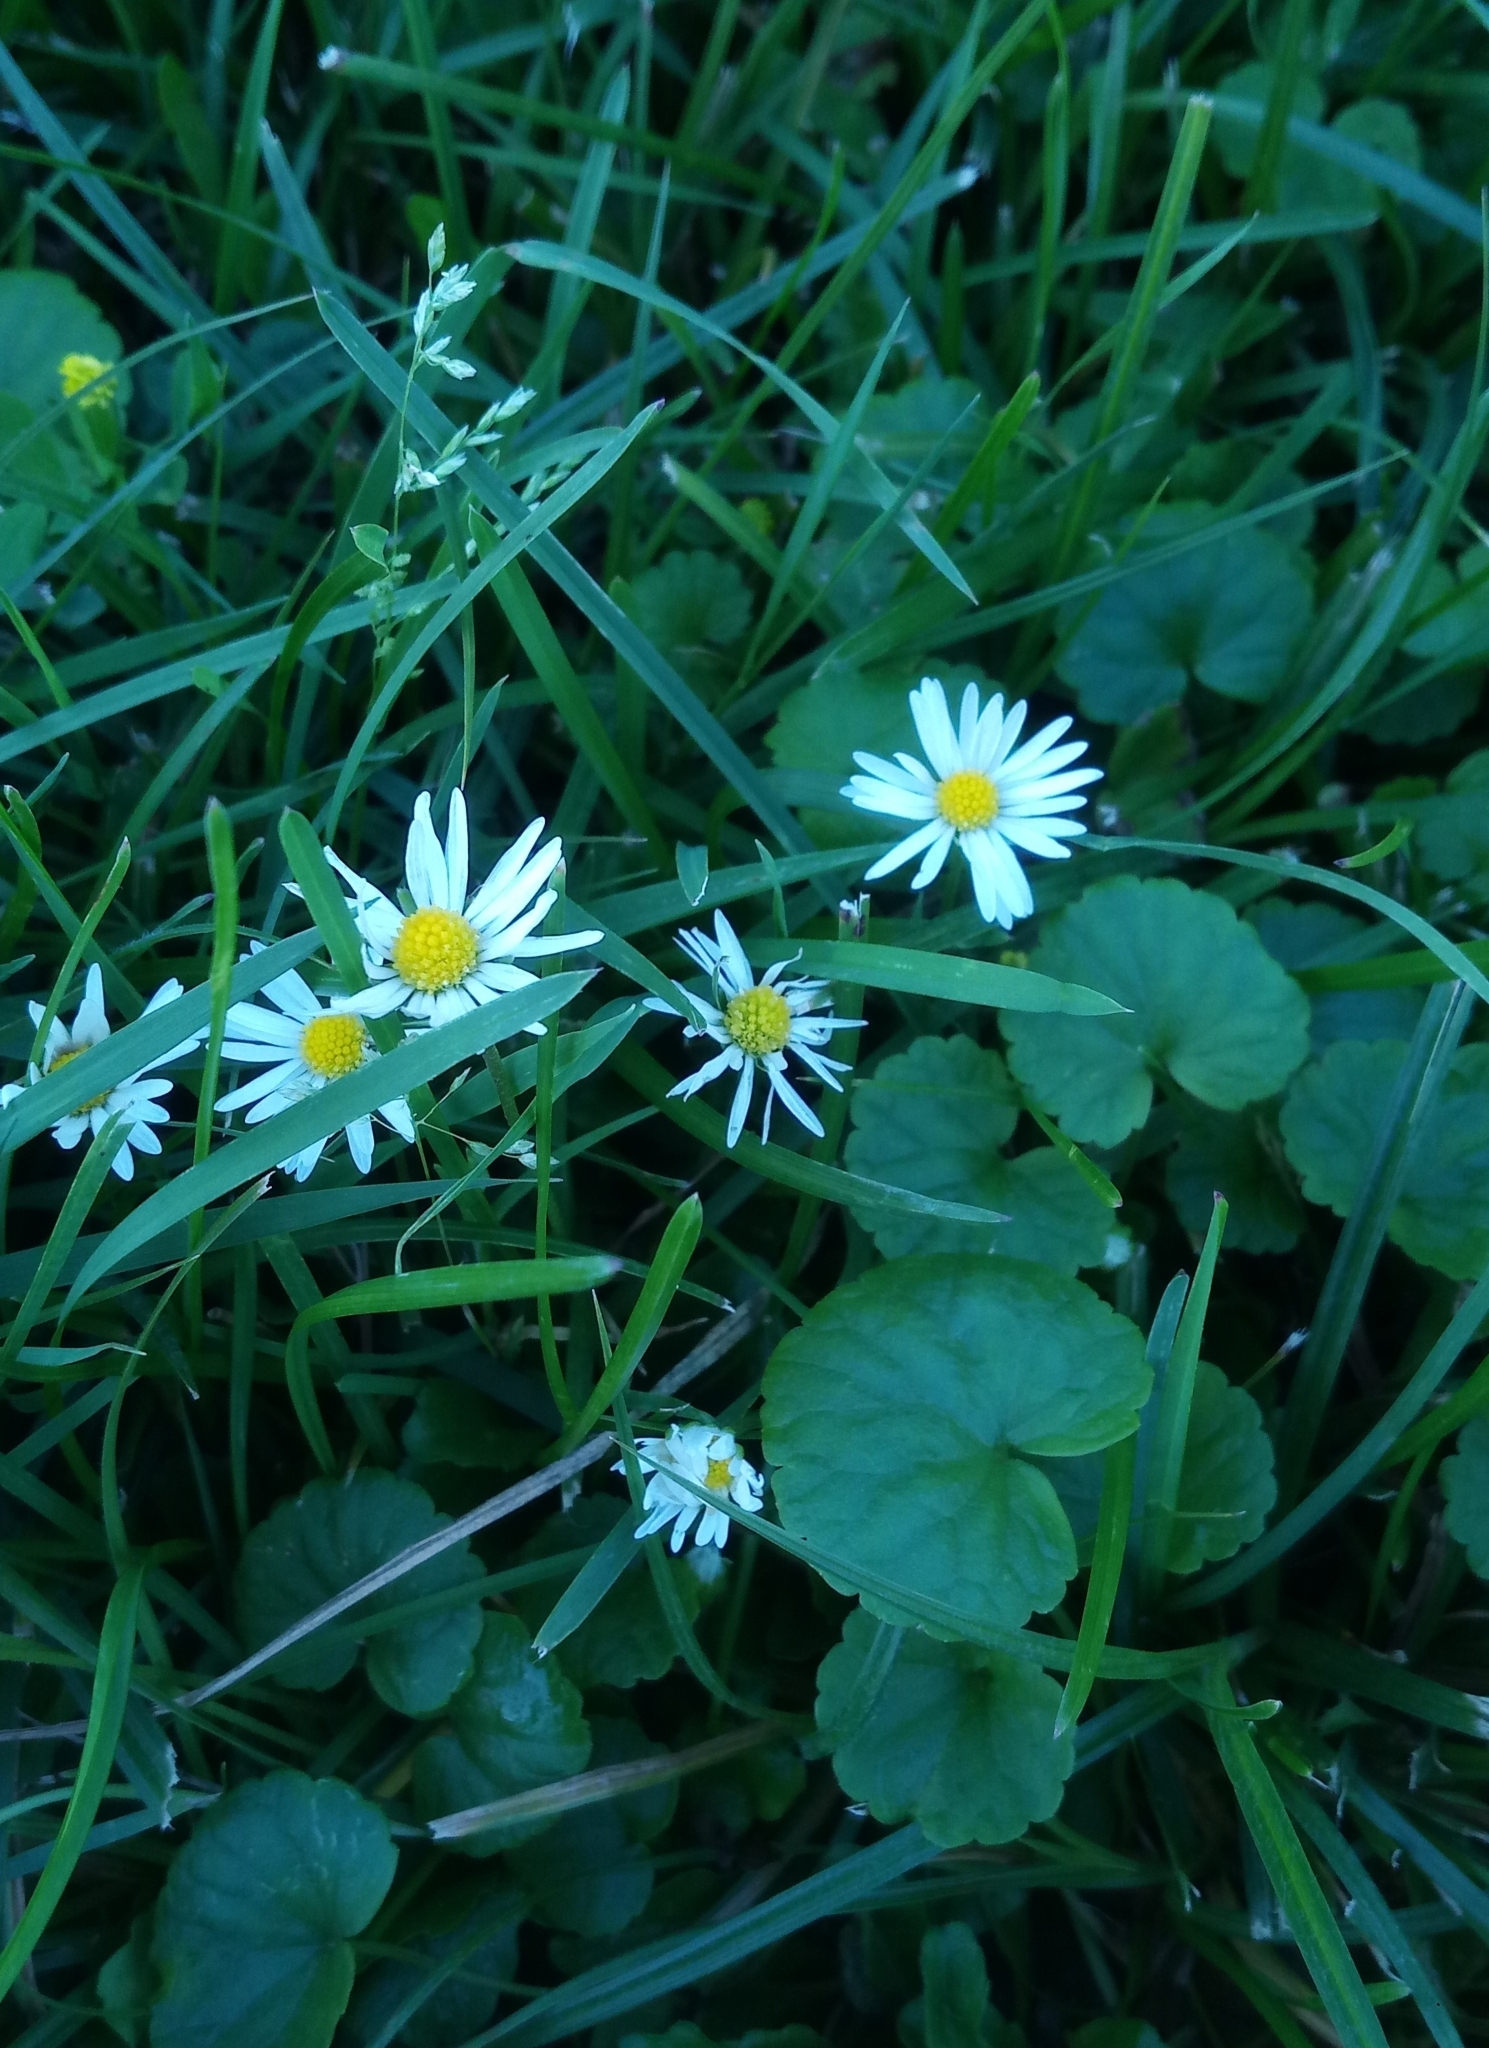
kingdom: Plantae
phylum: Tracheophyta
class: Magnoliopsida
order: Asterales
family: Asteraceae
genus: Bellis
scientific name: Bellis perennis
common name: Lawndaisy
